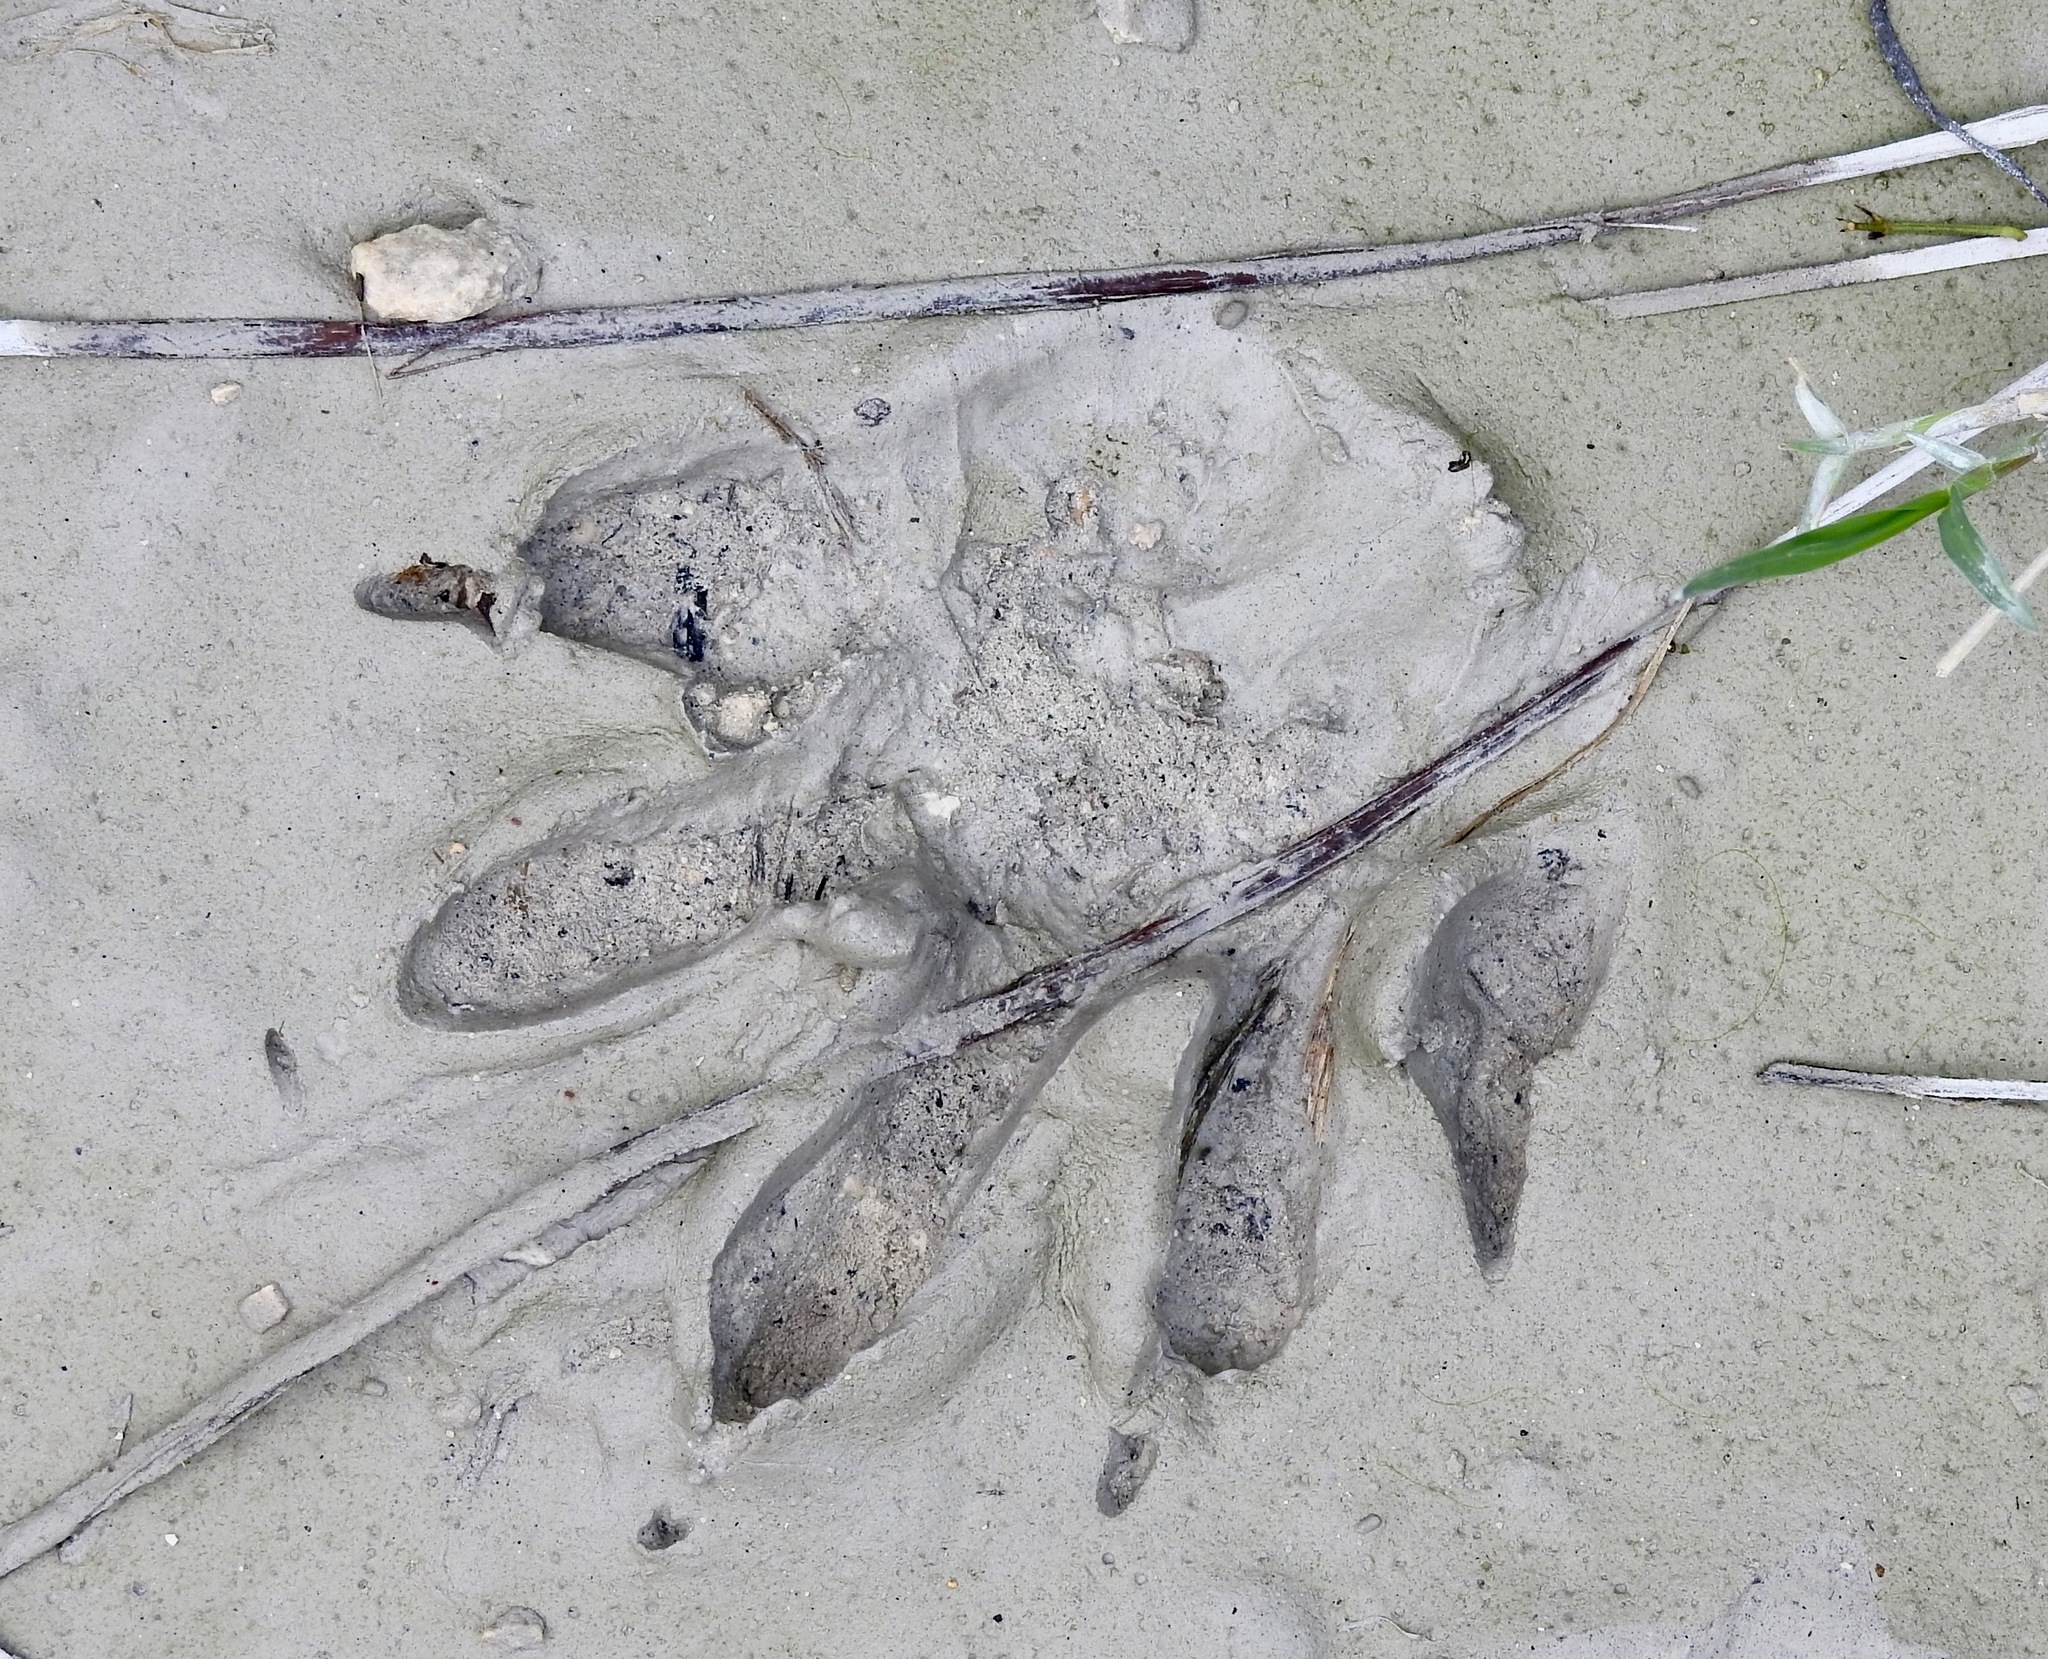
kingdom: Animalia
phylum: Chordata
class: Mammalia
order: Carnivora
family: Procyonidae
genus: Procyon
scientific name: Procyon lotor
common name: Raccoon
